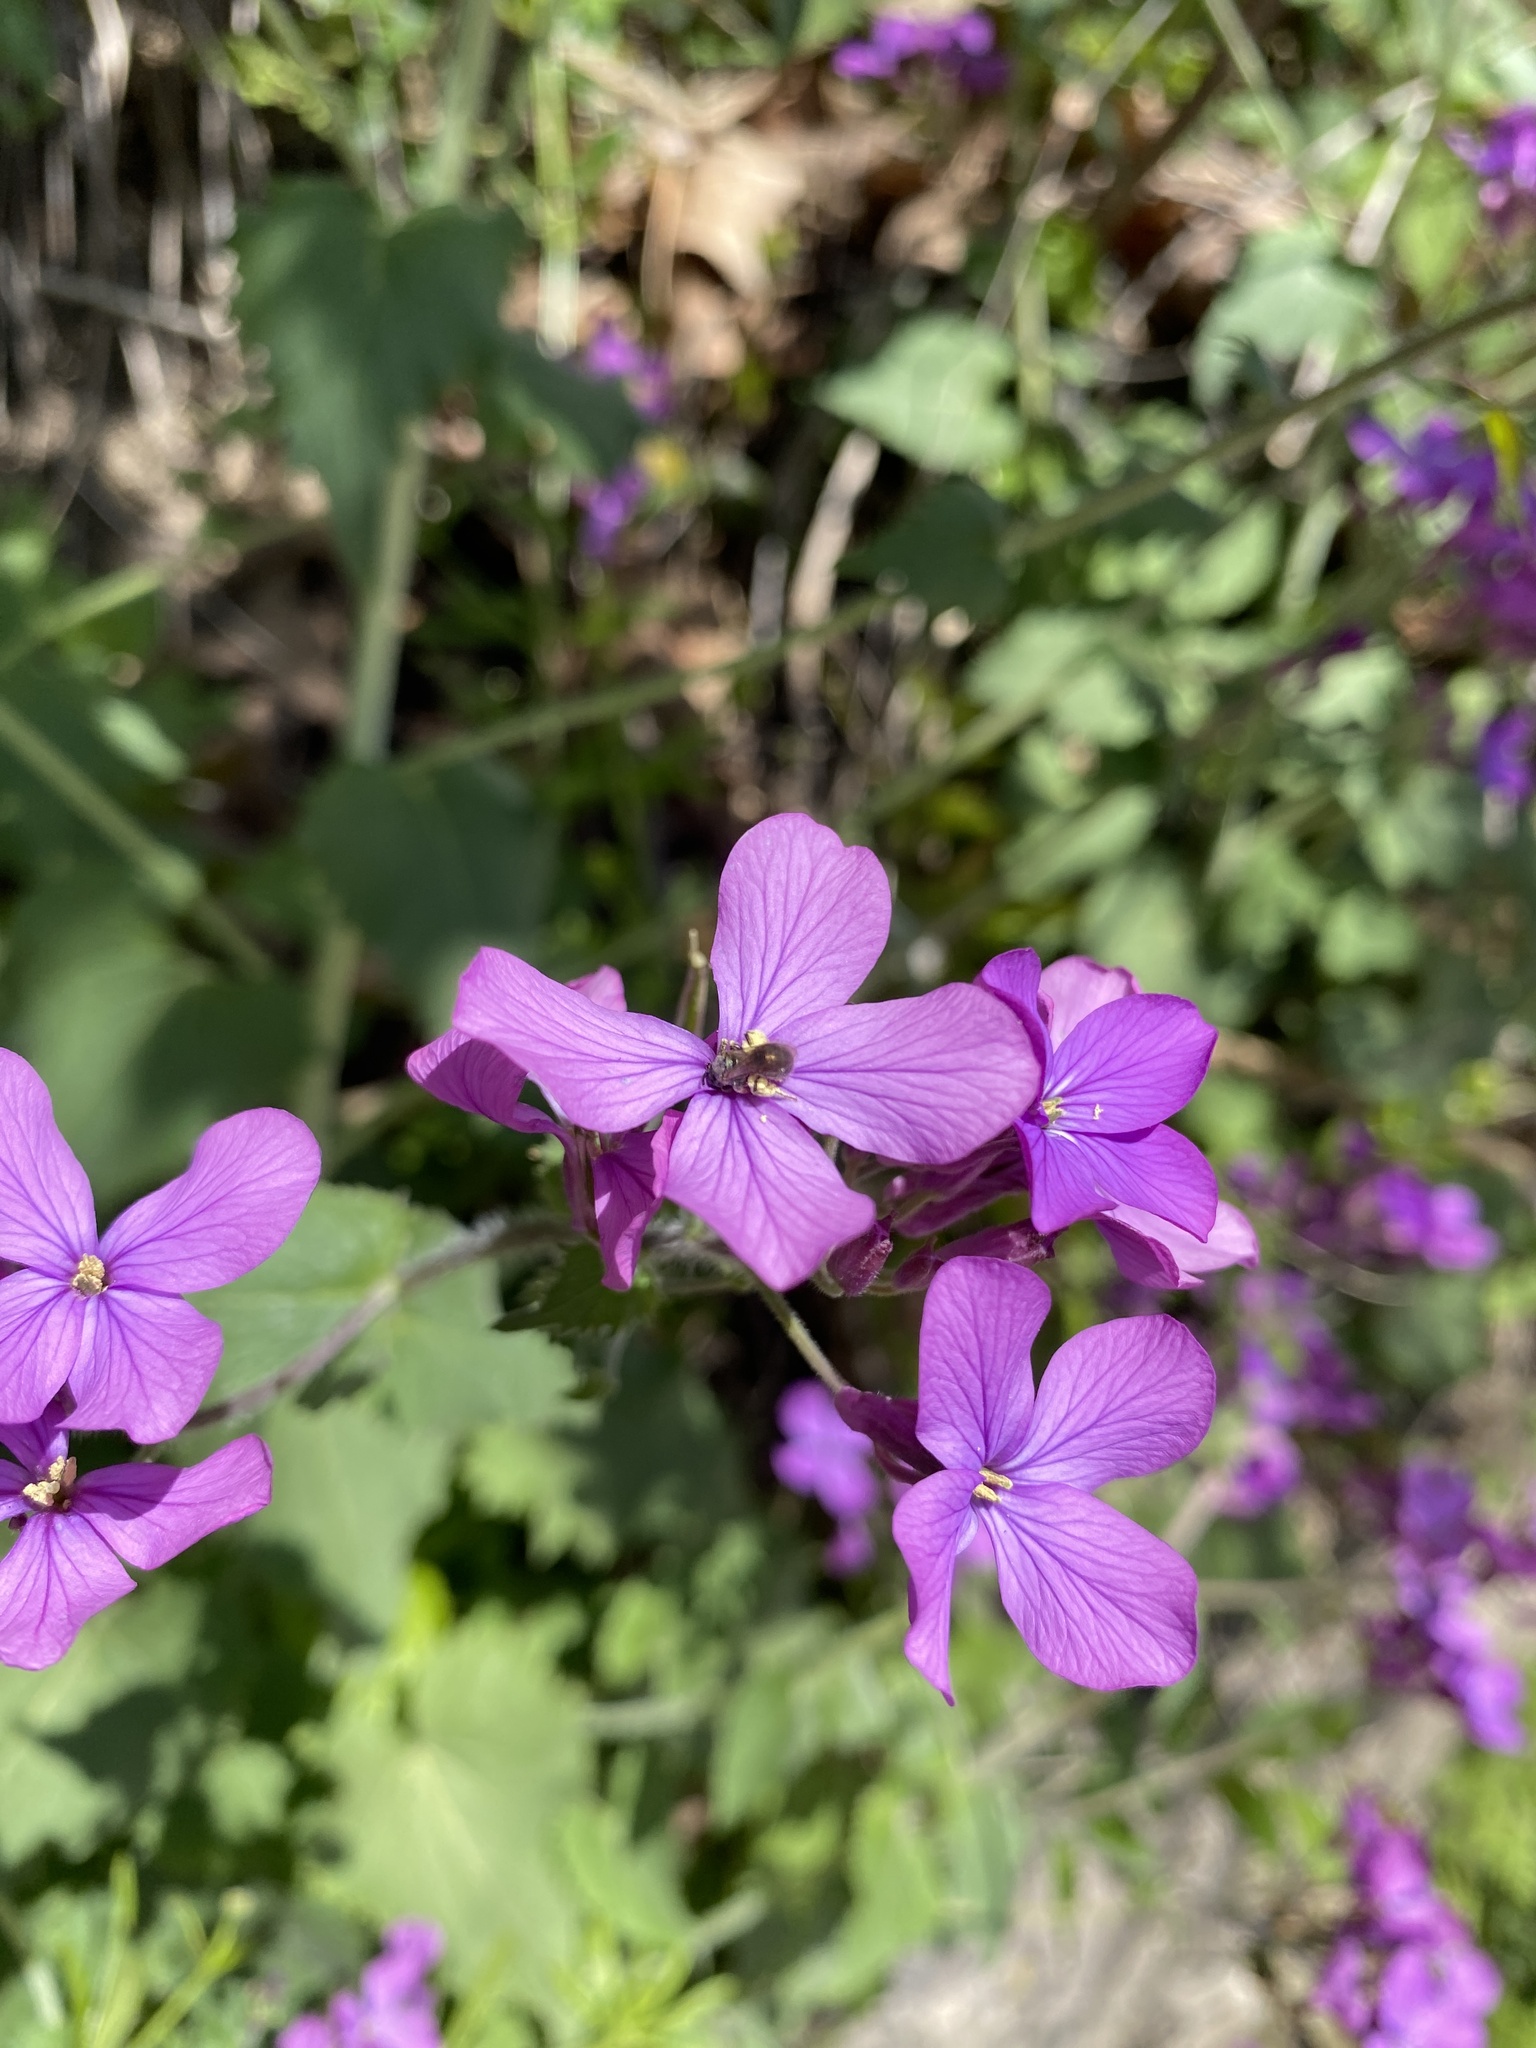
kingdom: Plantae
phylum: Tracheophyta
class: Magnoliopsida
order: Brassicales
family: Brassicaceae
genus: Lunaria
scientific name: Lunaria annua
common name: Honesty
